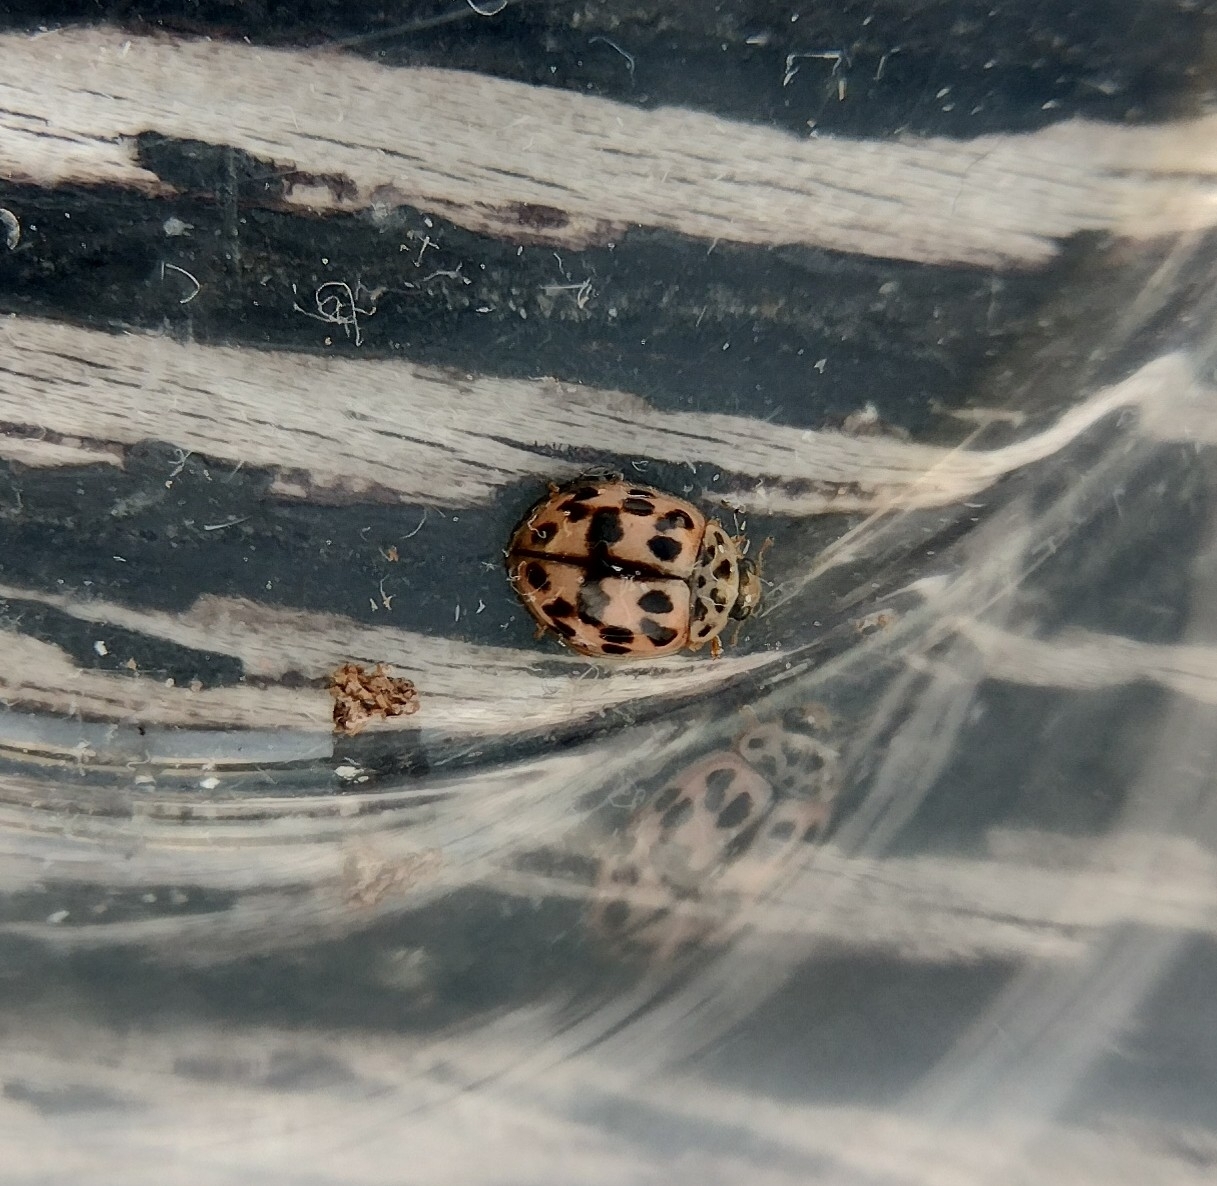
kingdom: Animalia
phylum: Arthropoda
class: Insecta
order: Coleoptera
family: Coccinellidae
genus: Oenopia
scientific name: Oenopia conglobata
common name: Ladybird beetle
